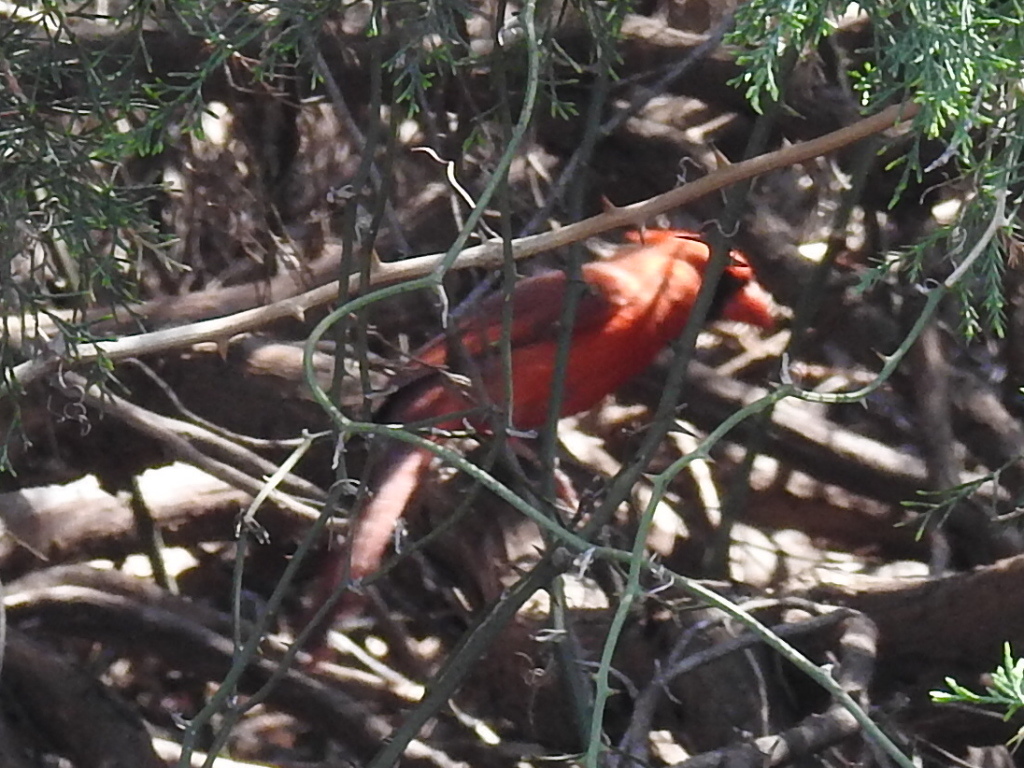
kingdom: Animalia
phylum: Chordata
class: Aves
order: Passeriformes
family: Cardinalidae
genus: Cardinalis
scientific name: Cardinalis cardinalis
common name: Northern cardinal
